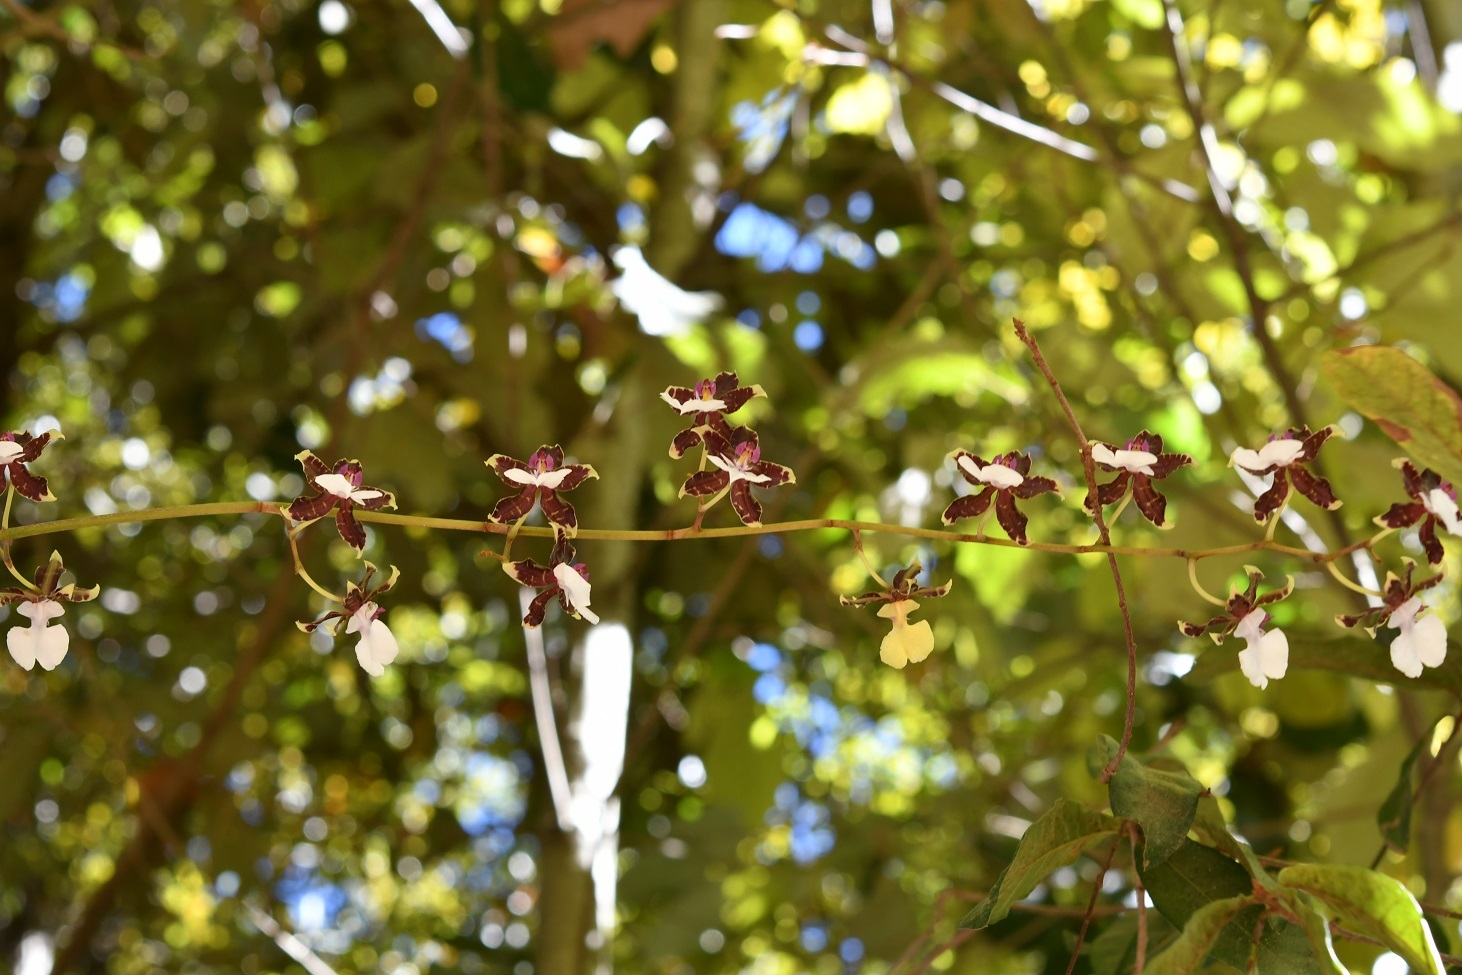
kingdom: Plantae
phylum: Tracheophyta
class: Liliopsida
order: Asparagales
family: Orchidaceae
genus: Oncidium
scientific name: Oncidium leucochilum
